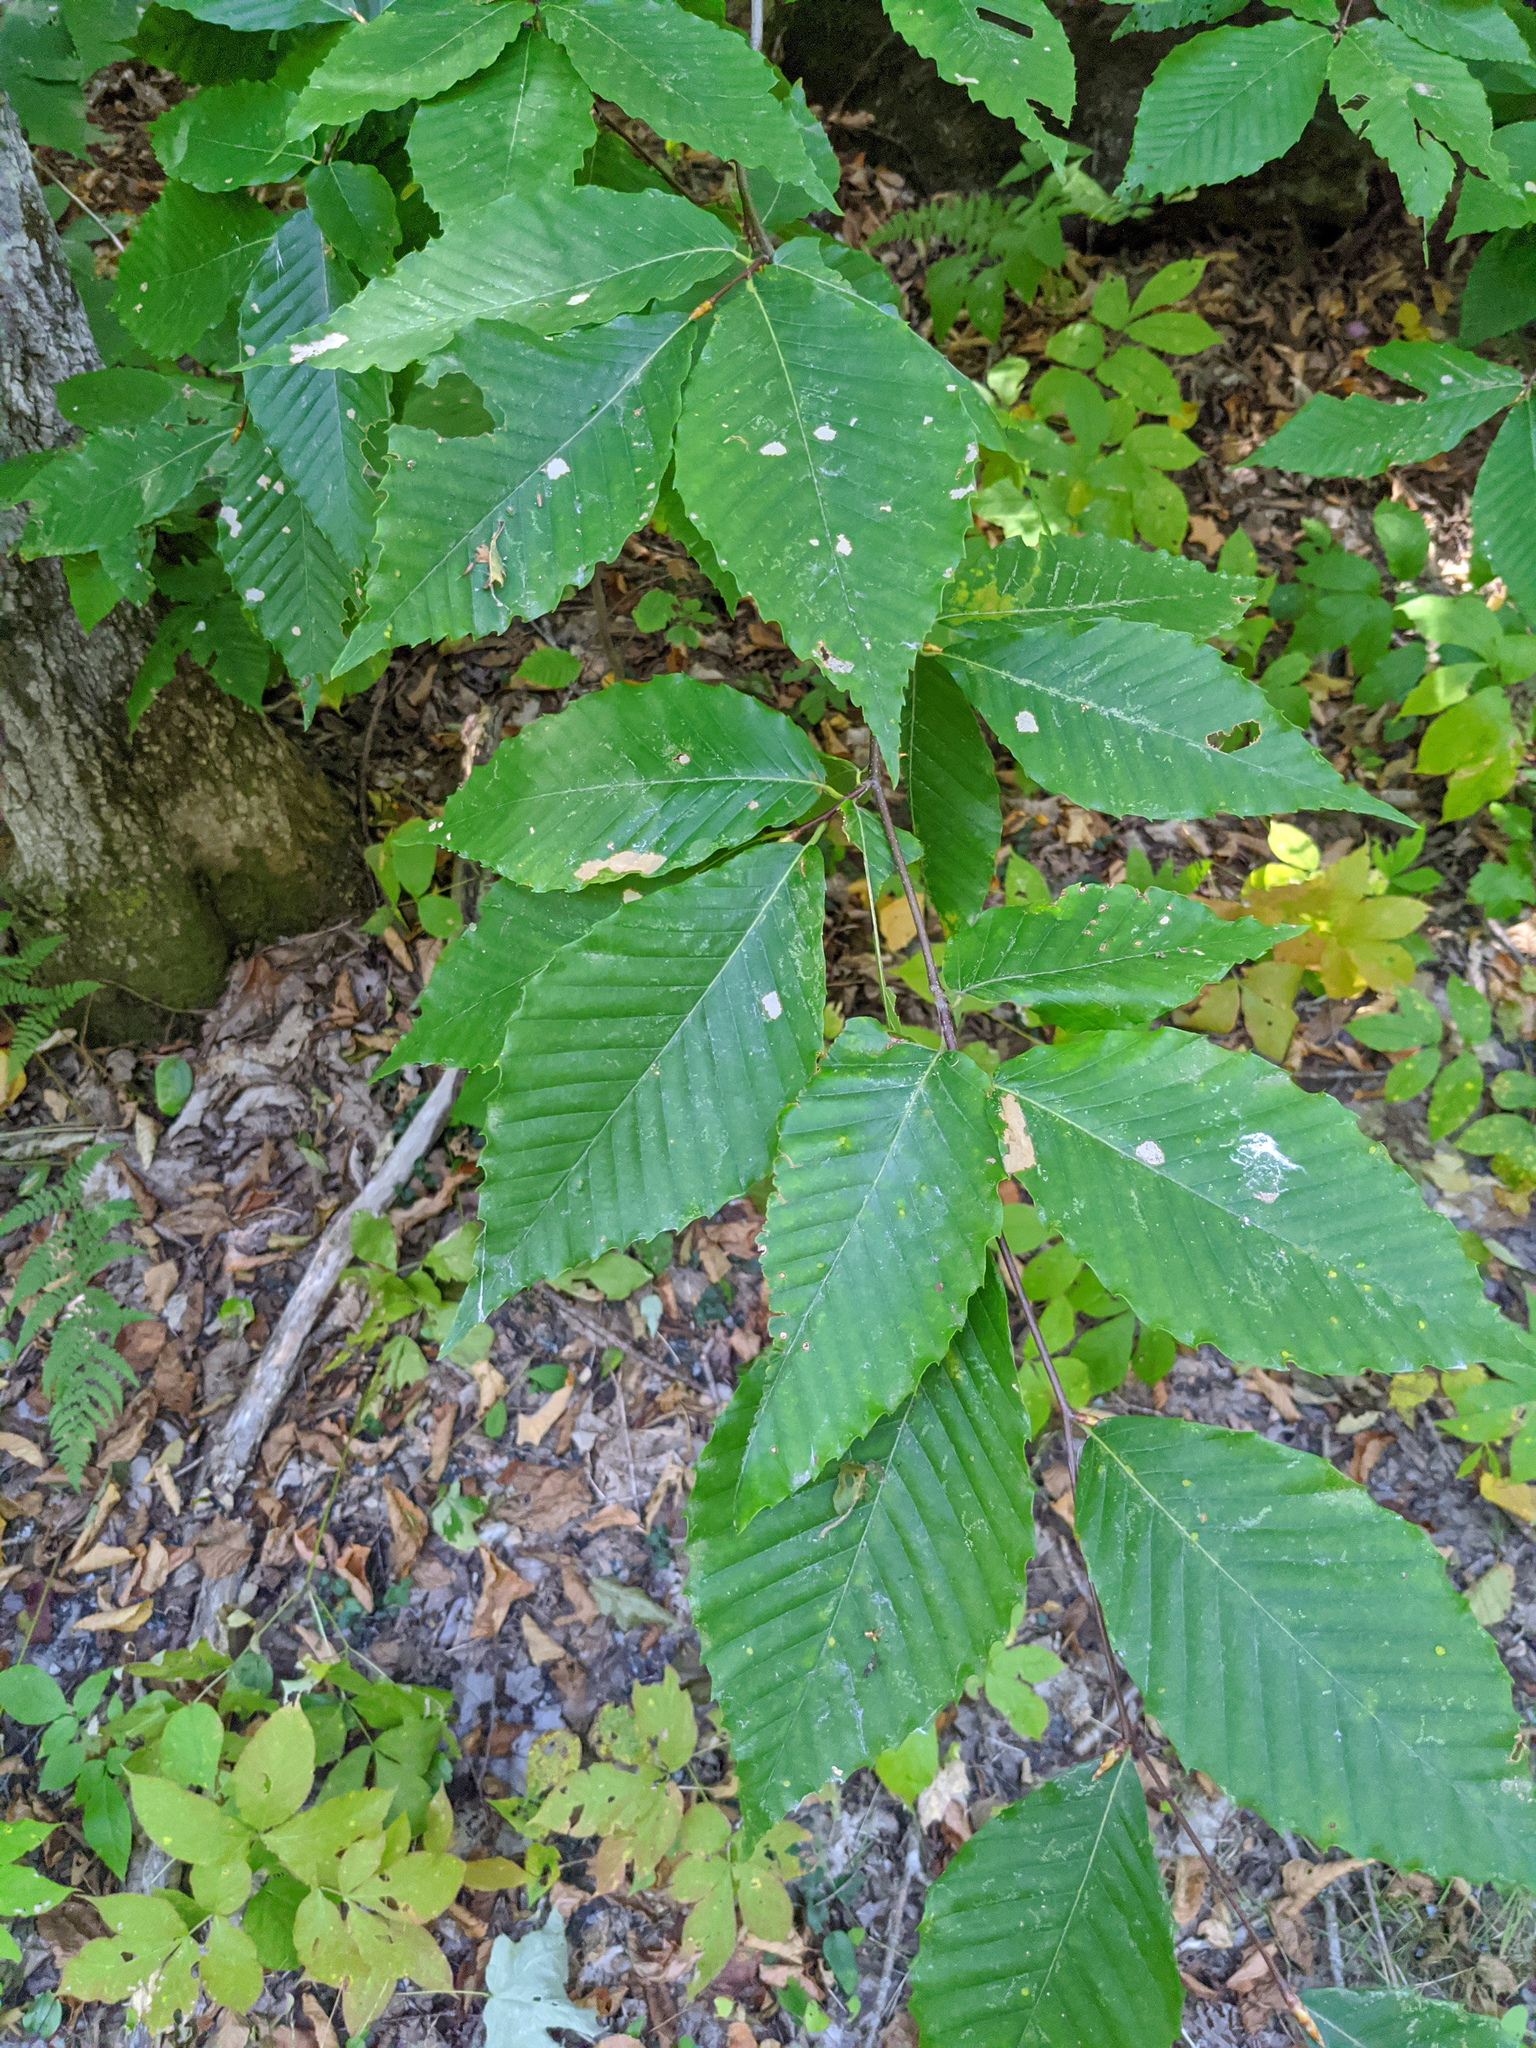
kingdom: Plantae
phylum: Tracheophyta
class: Magnoliopsida
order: Fagales
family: Fagaceae
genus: Fagus
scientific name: Fagus grandifolia
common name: American beech
